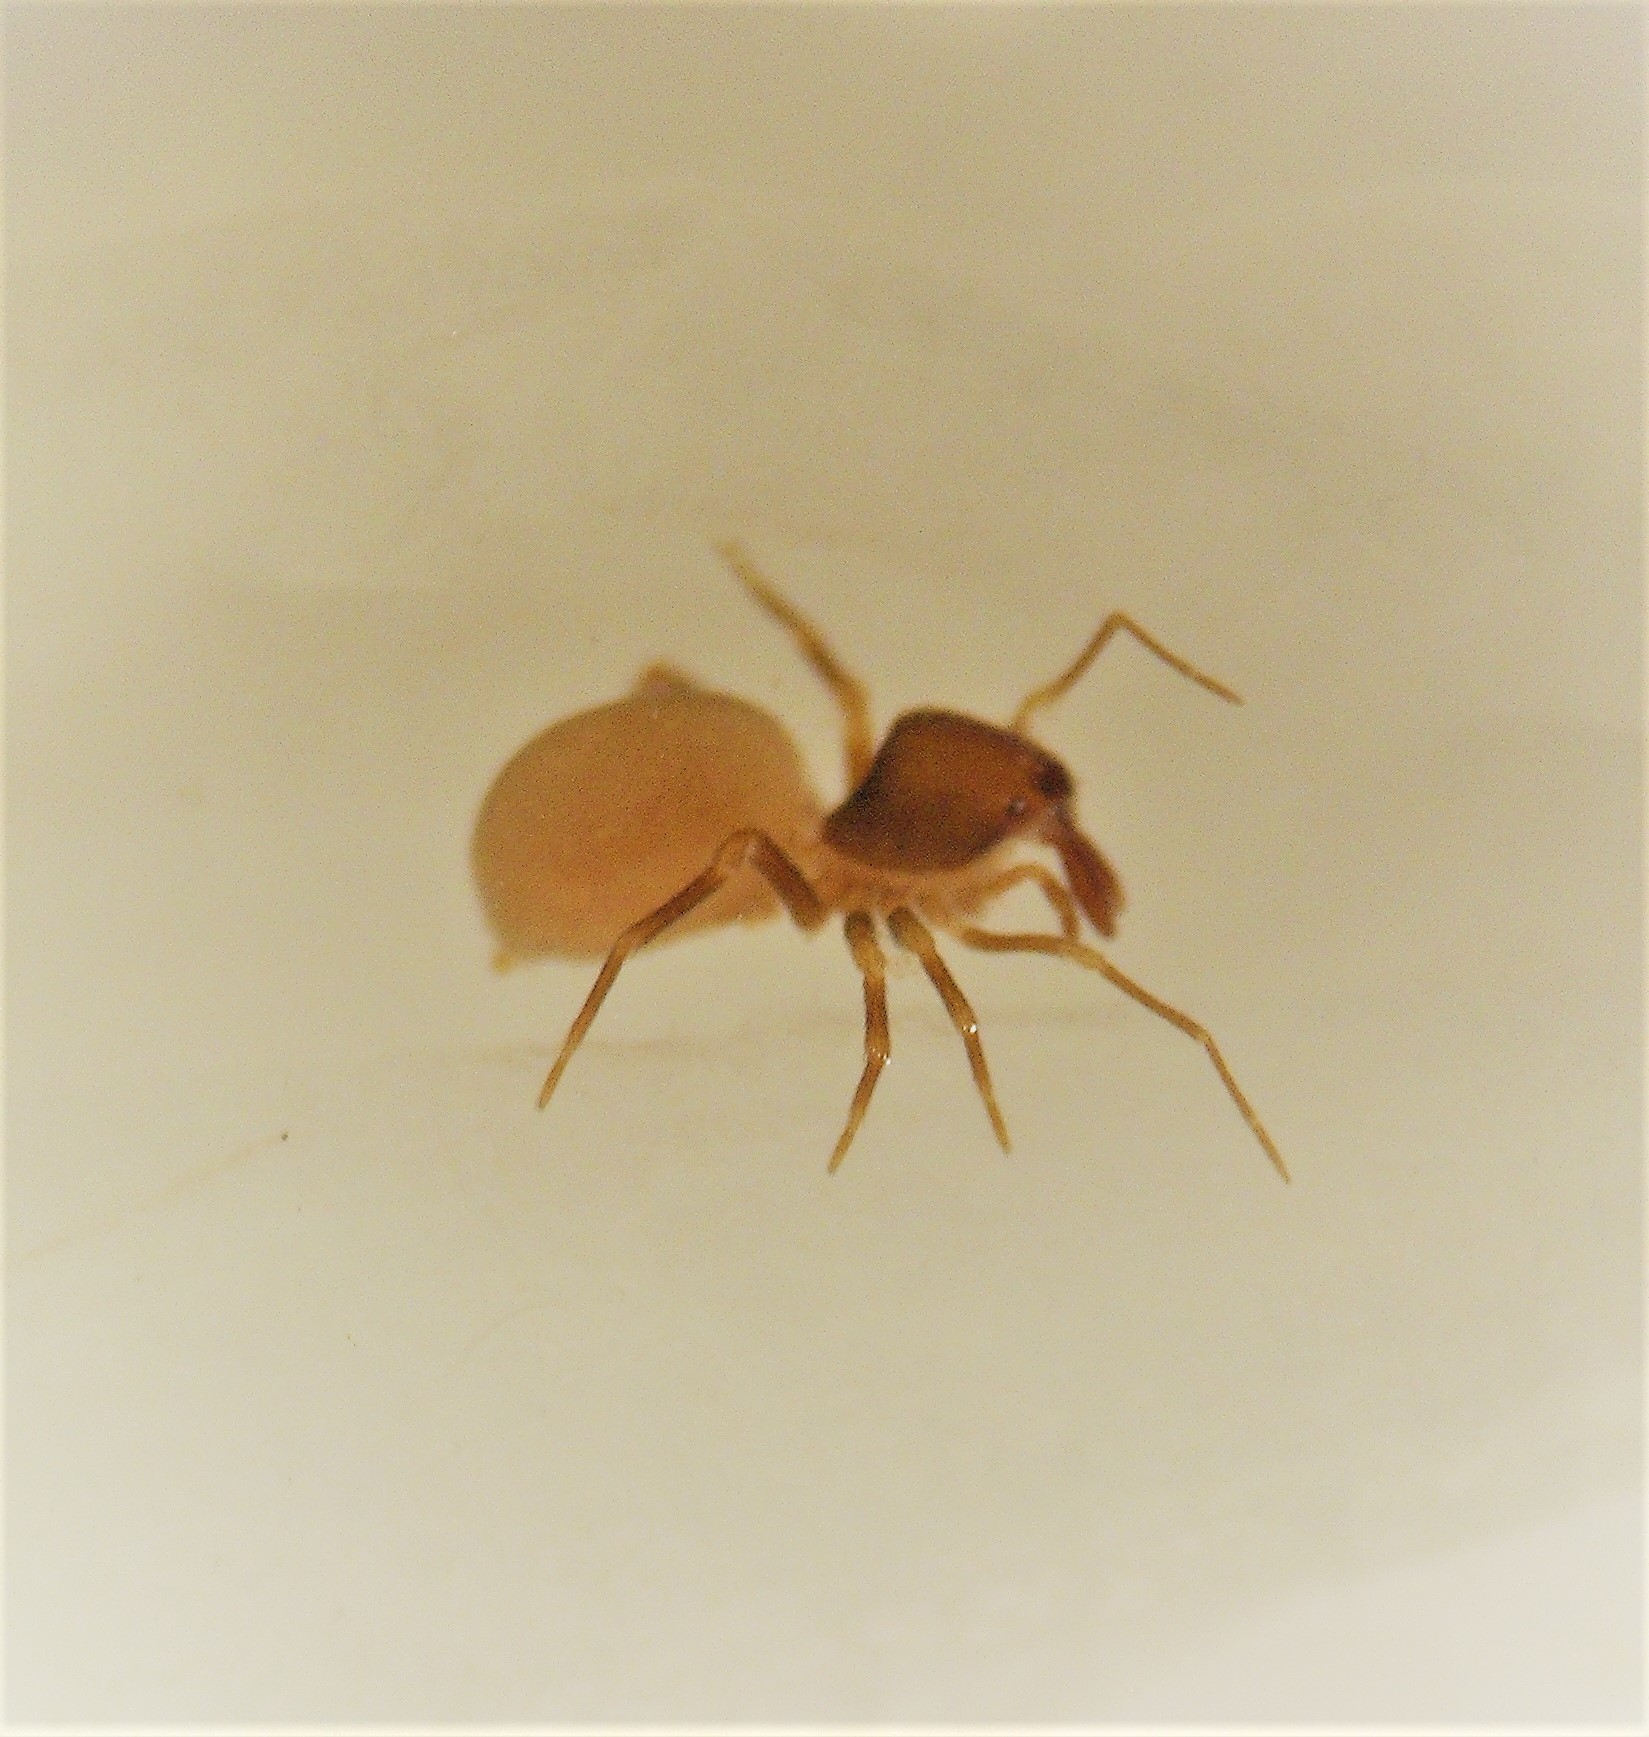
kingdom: Animalia
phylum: Arthropoda
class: Arachnida
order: Araneae
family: Malkaridae
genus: Pararchaea
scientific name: Pararchaea alba
